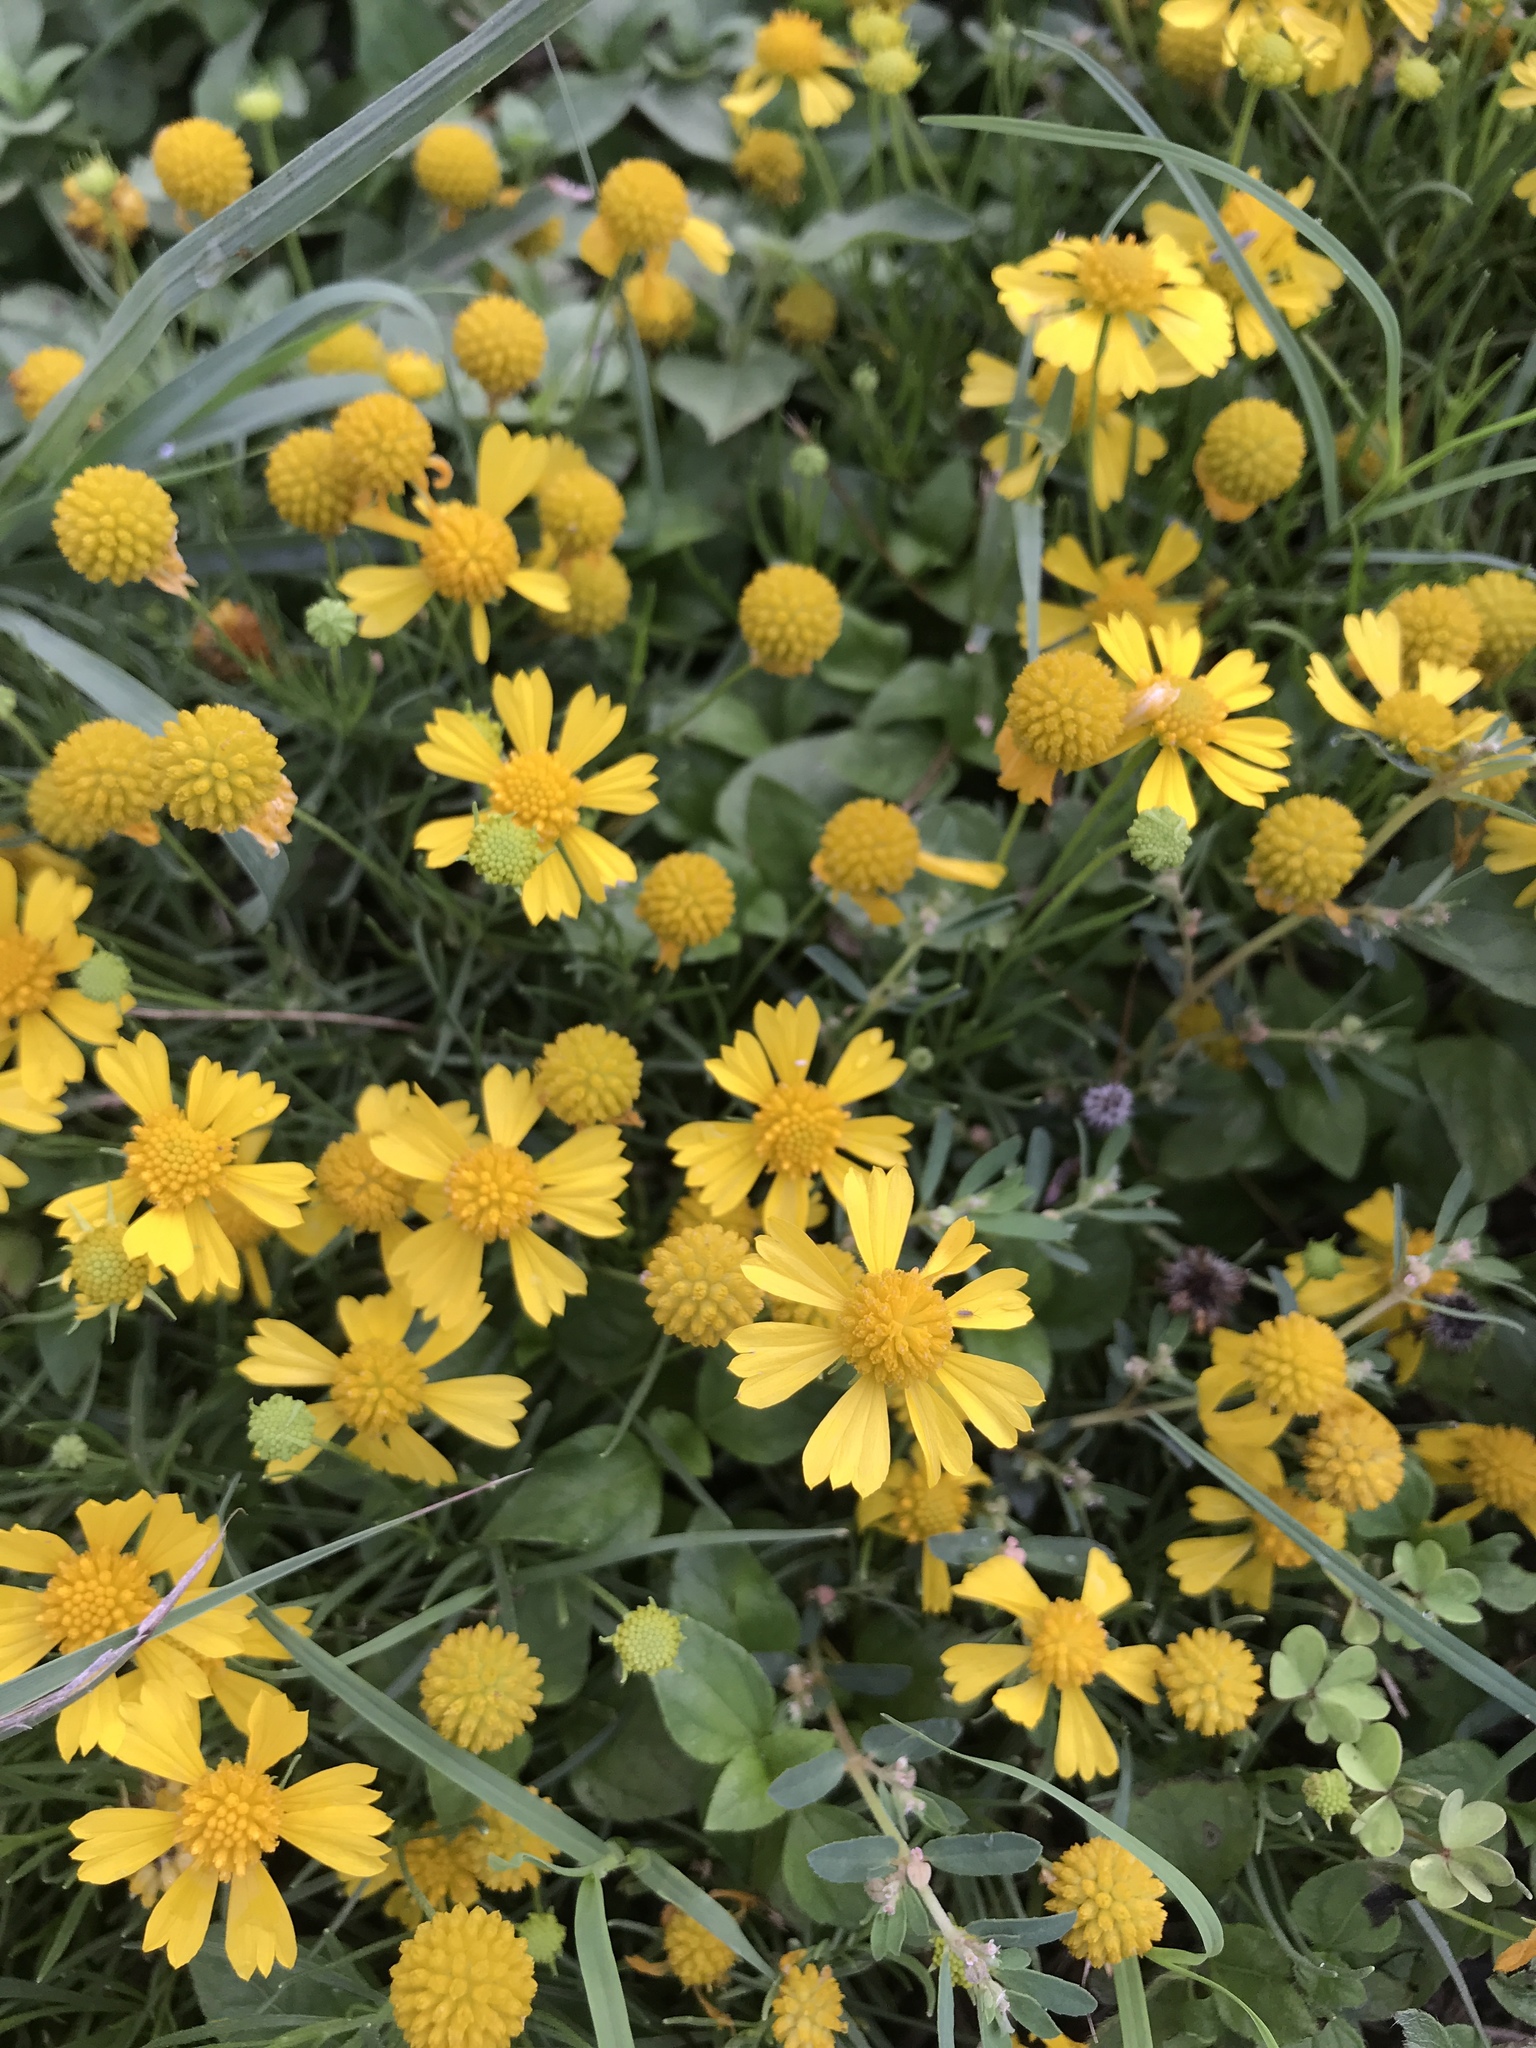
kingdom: Plantae
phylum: Tracheophyta
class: Magnoliopsida
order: Asterales
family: Asteraceae
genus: Helenium
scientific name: Helenium amarum
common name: Bitter sneezeweed
